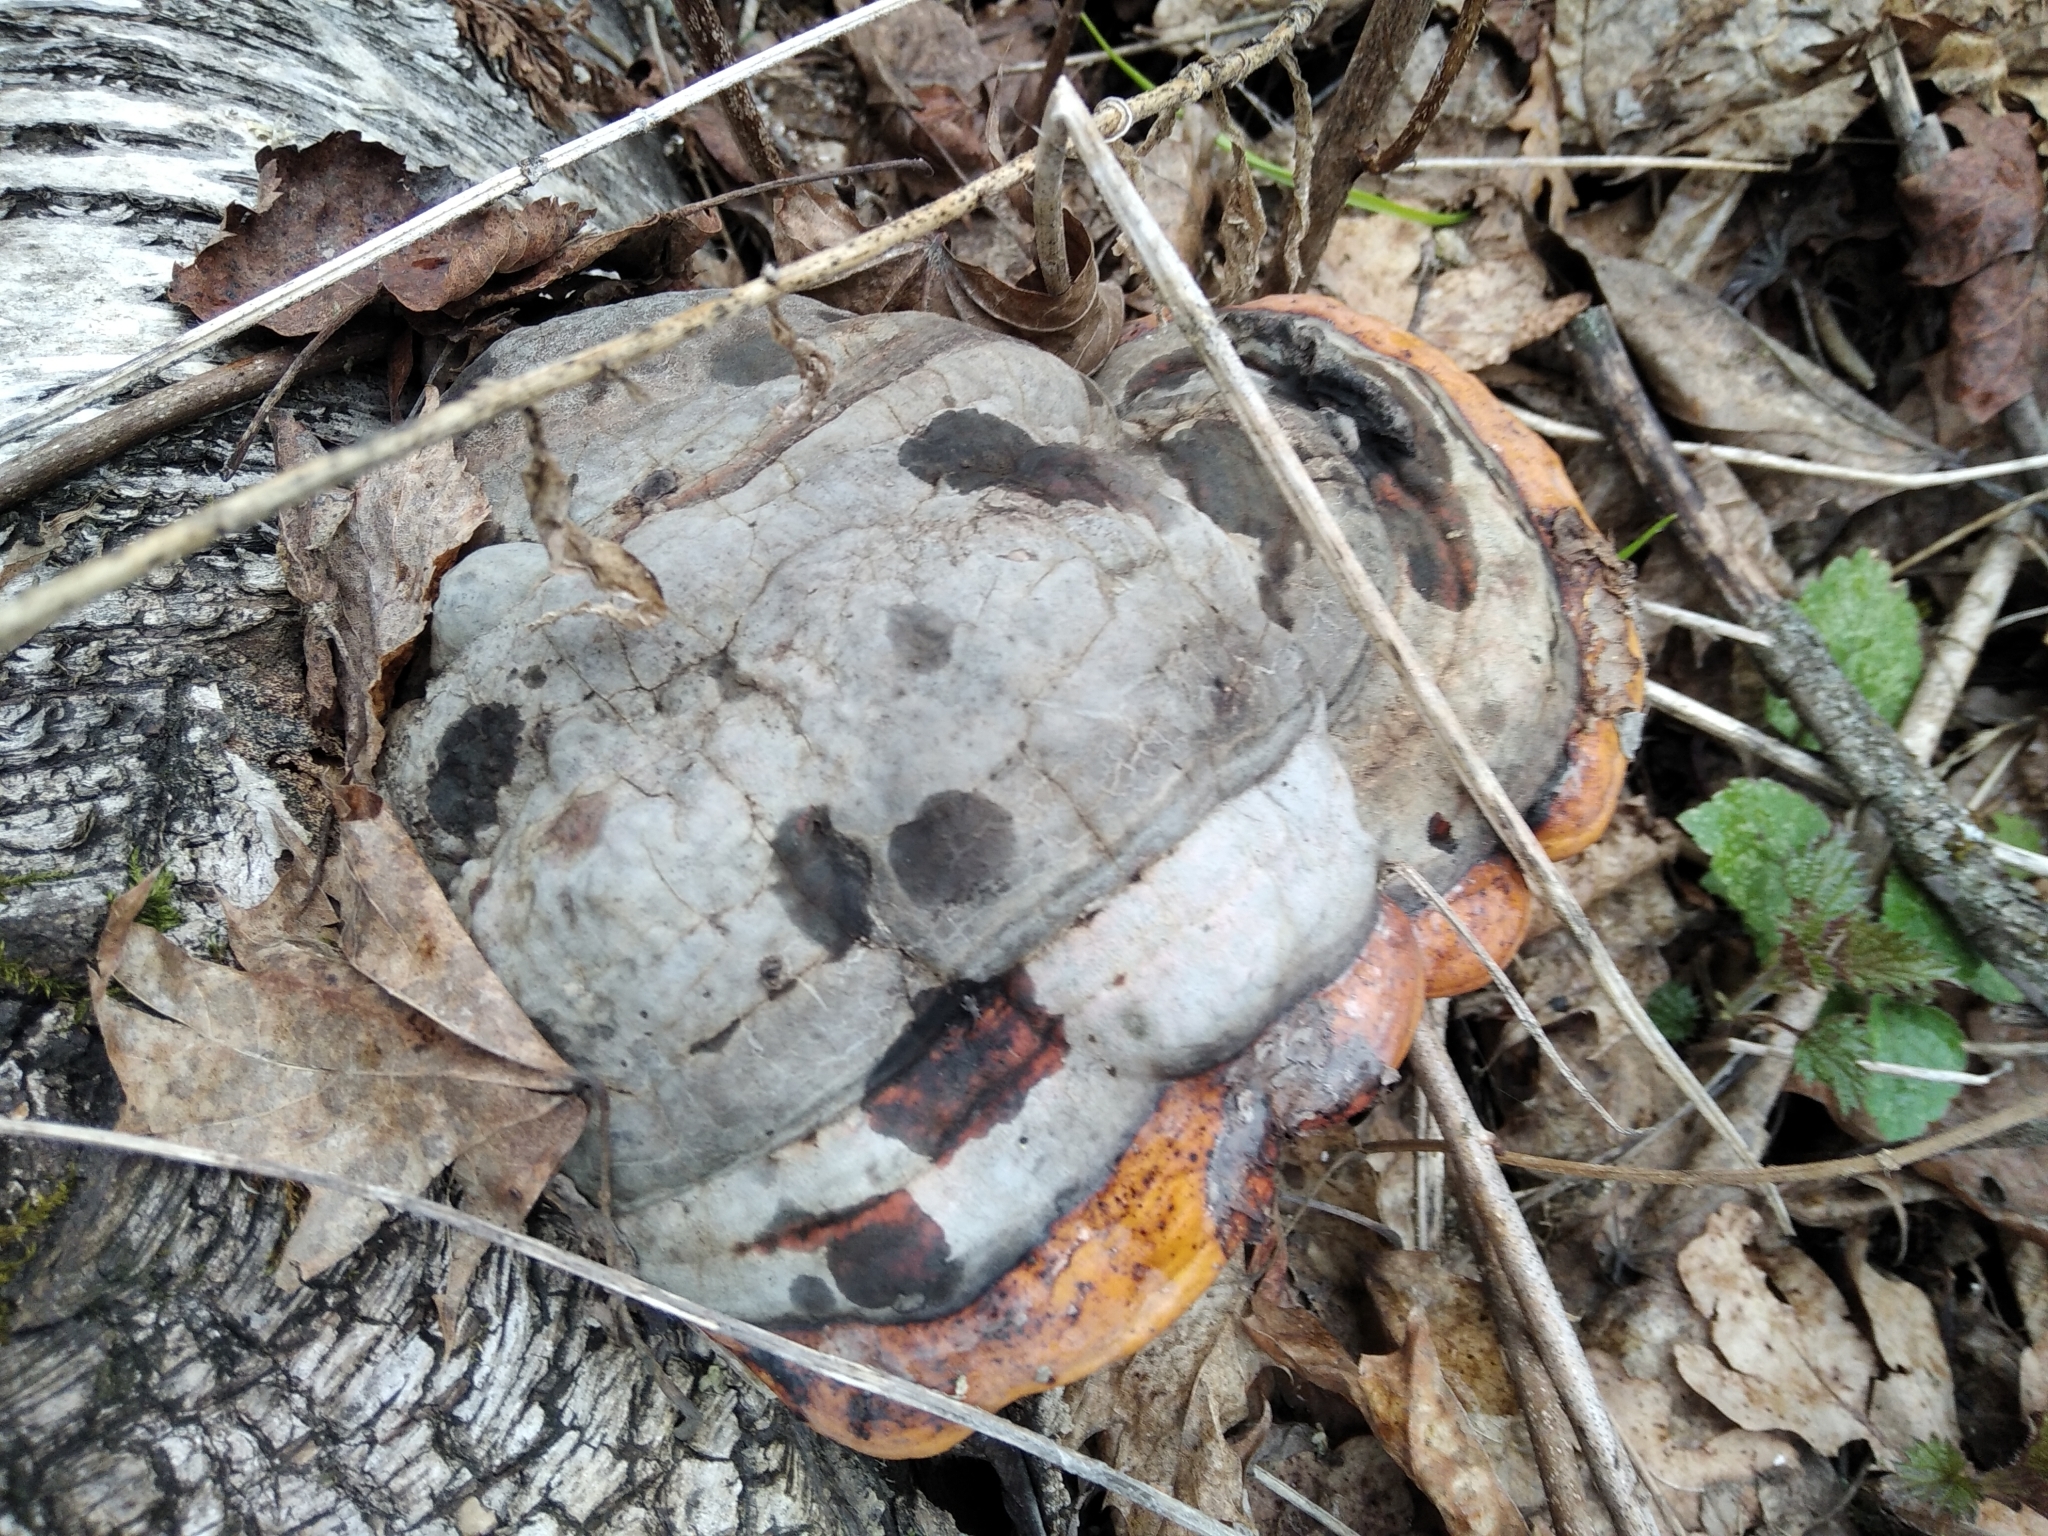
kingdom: Fungi
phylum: Basidiomycota
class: Agaricomycetes
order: Polyporales
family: Fomitopsidaceae
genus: Fomitopsis
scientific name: Fomitopsis pinicola
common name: Red-belted bracket
